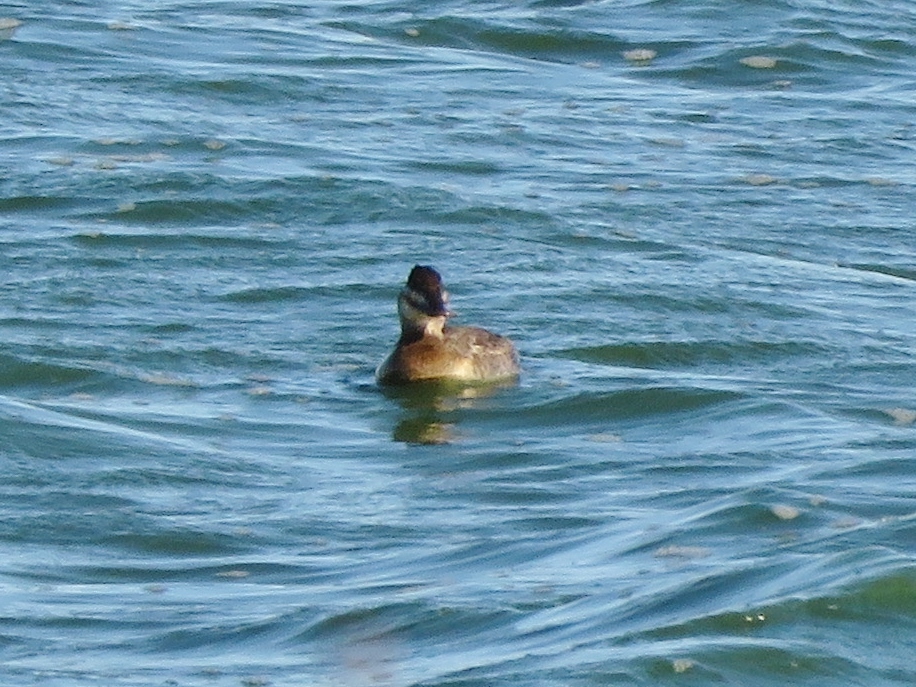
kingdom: Animalia
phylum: Chordata
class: Aves
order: Anseriformes
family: Anatidae
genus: Oxyura
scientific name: Oxyura jamaicensis
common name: Ruddy duck
